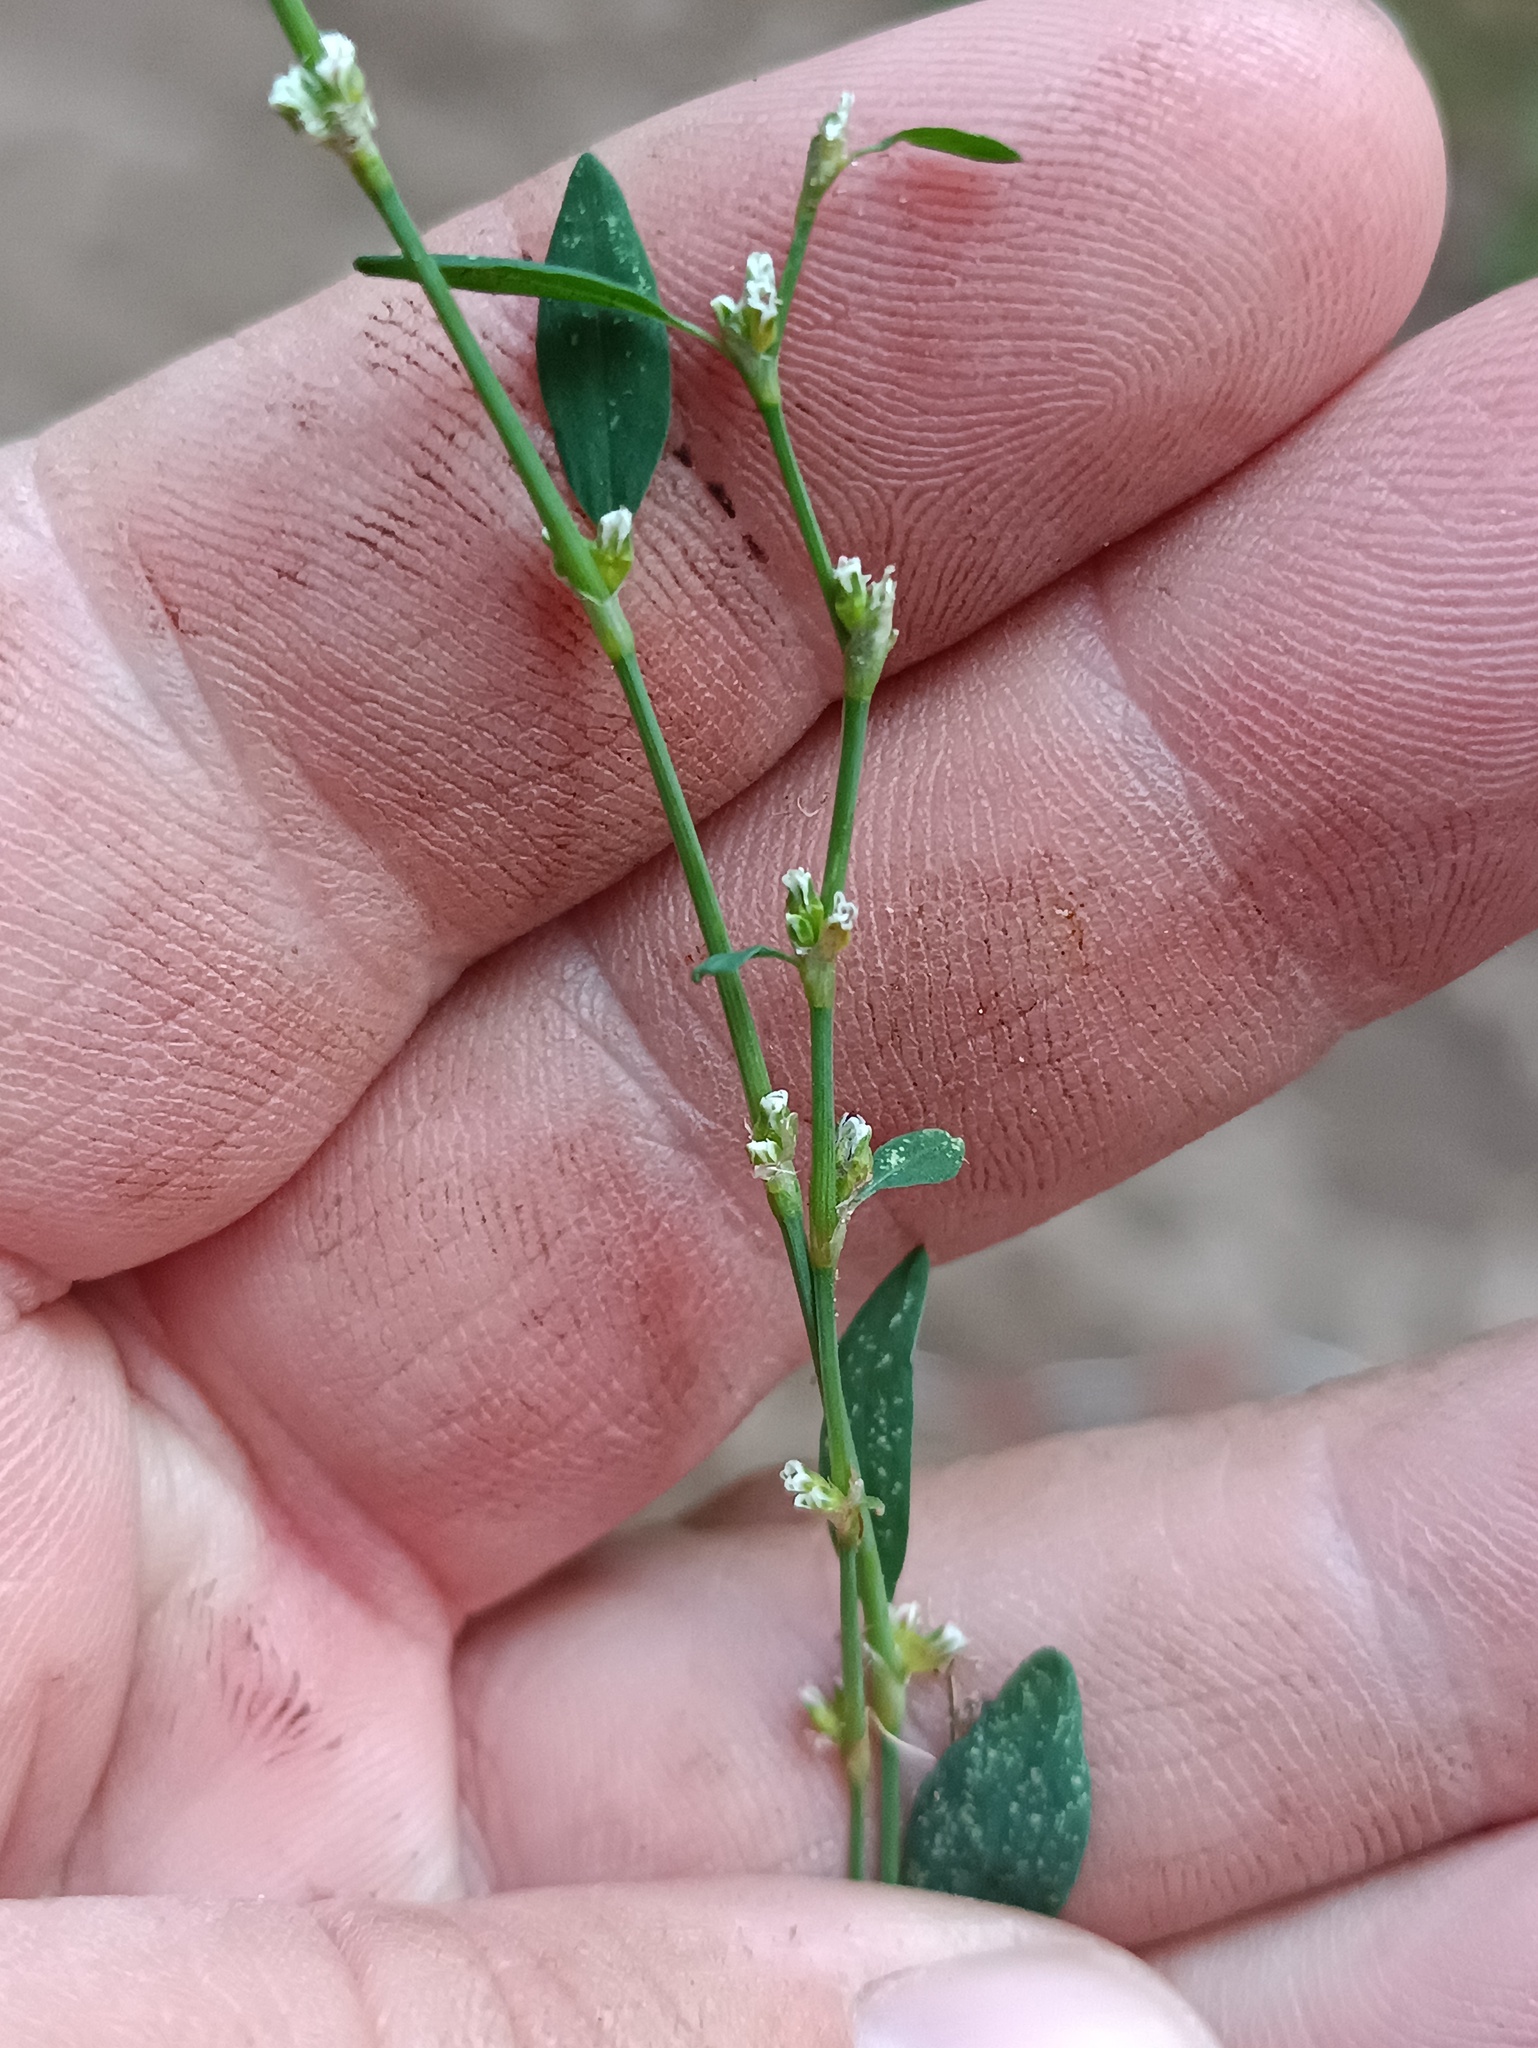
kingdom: Plantae
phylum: Tracheophyta
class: Magnoliopsida
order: Caryophyllales
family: Polygonaceae
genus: Polygonum
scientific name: Polygonum
